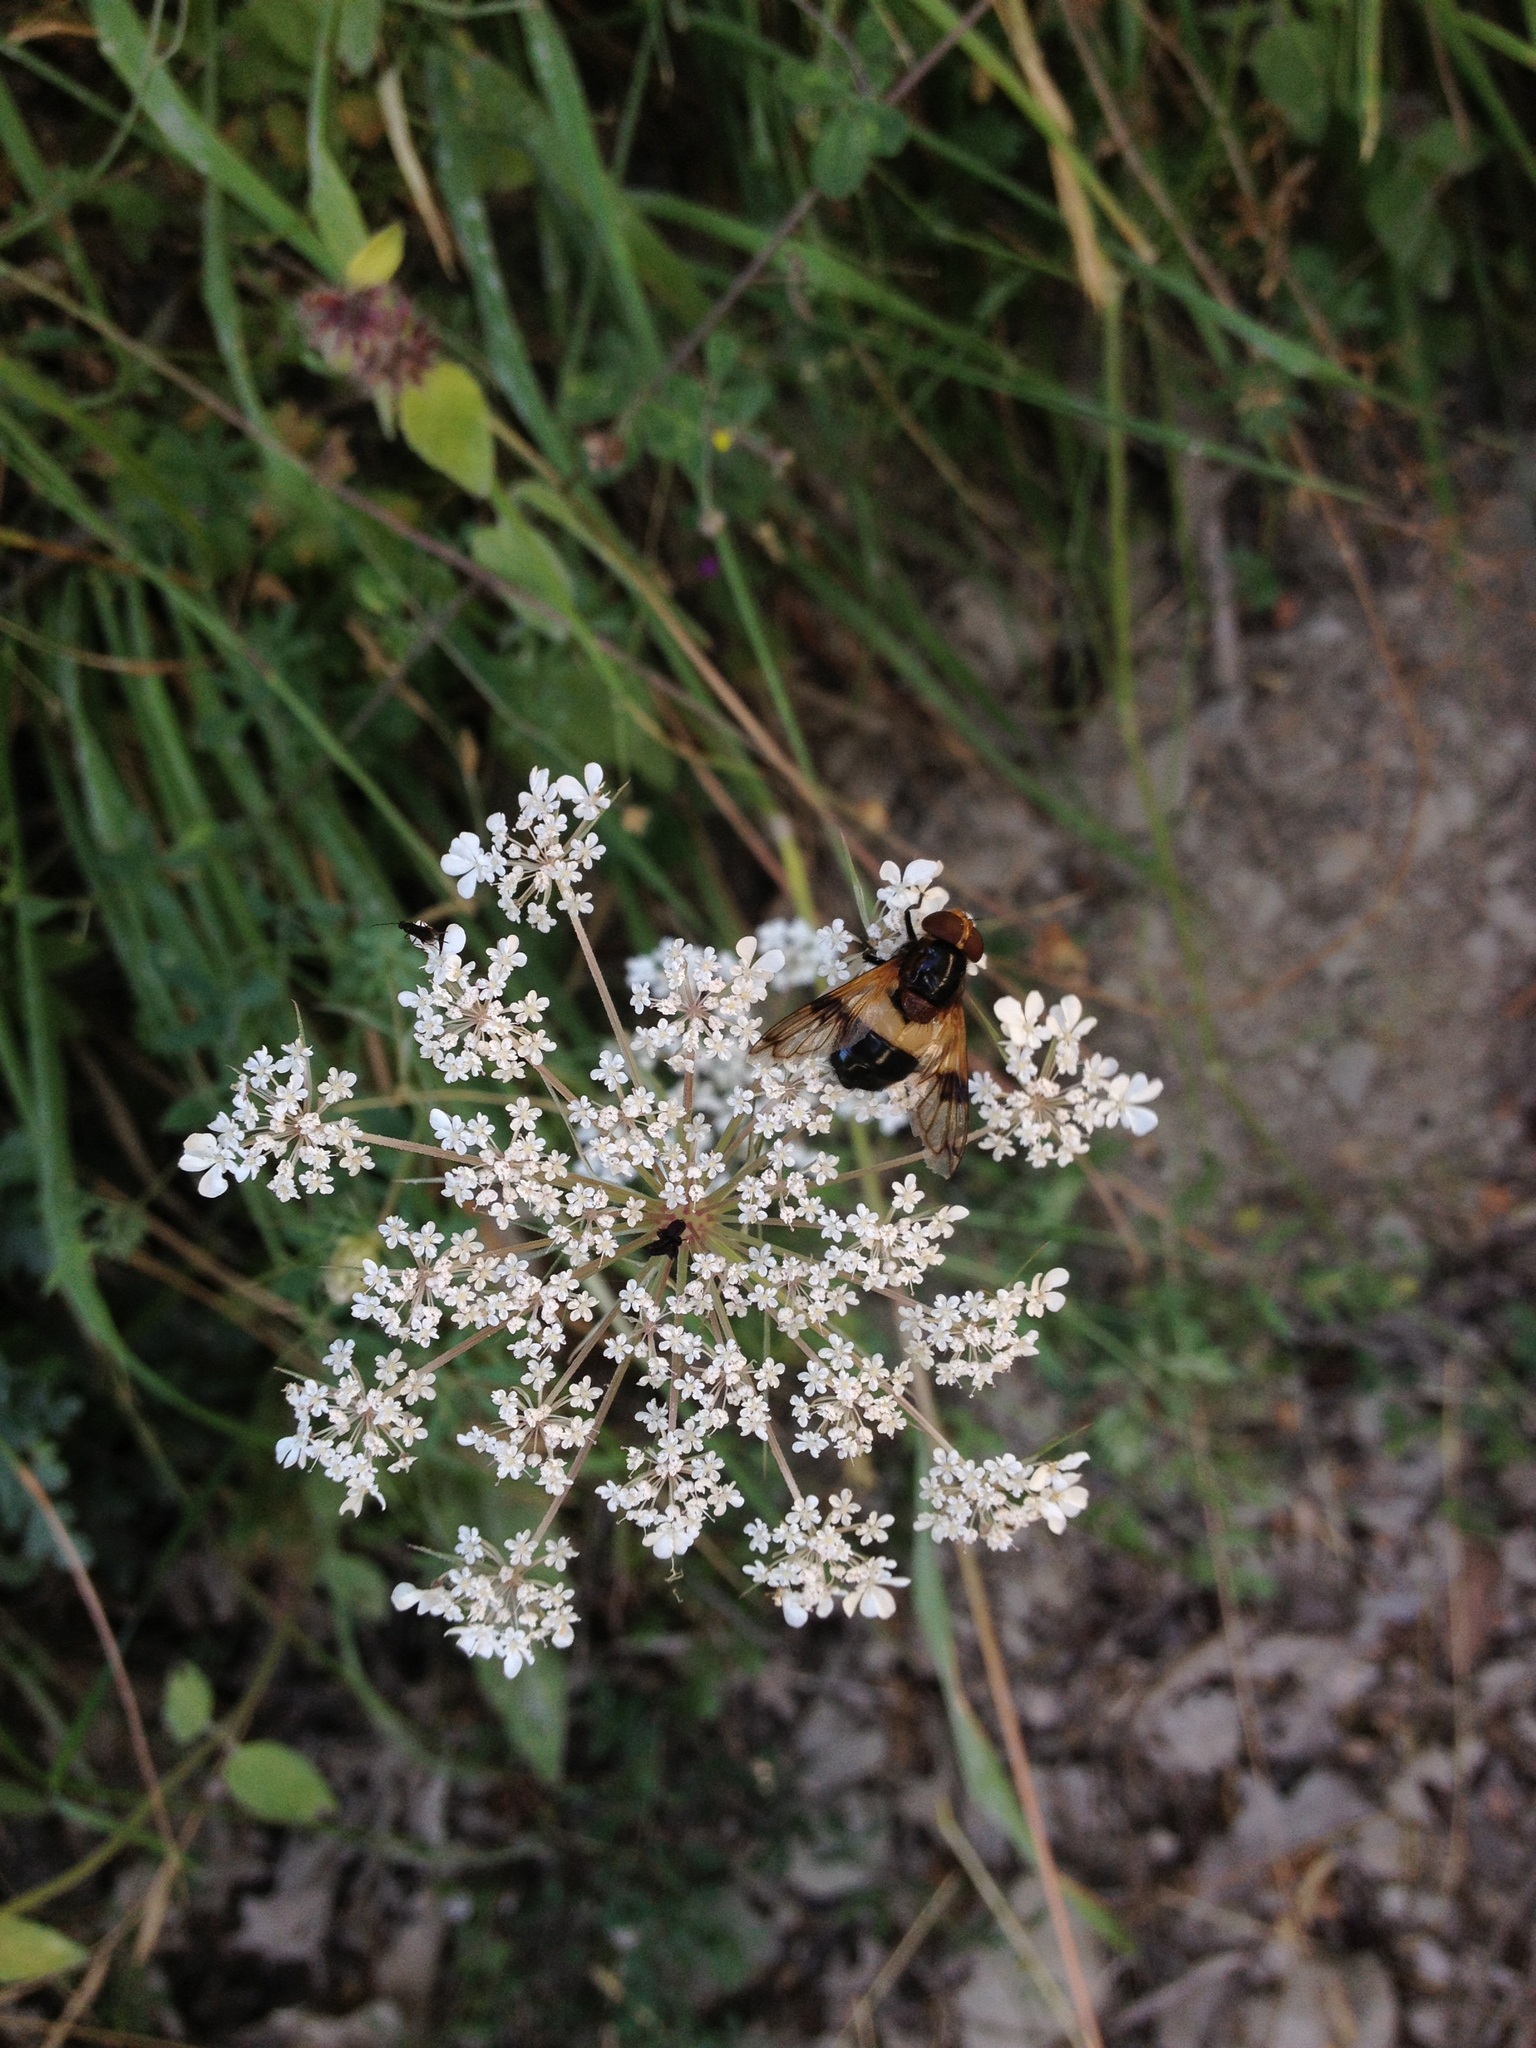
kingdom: Animalia
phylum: Arthropoda
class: Insecta
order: Diptera
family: Syrphidae
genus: Volucella
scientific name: Volucella pellucens
